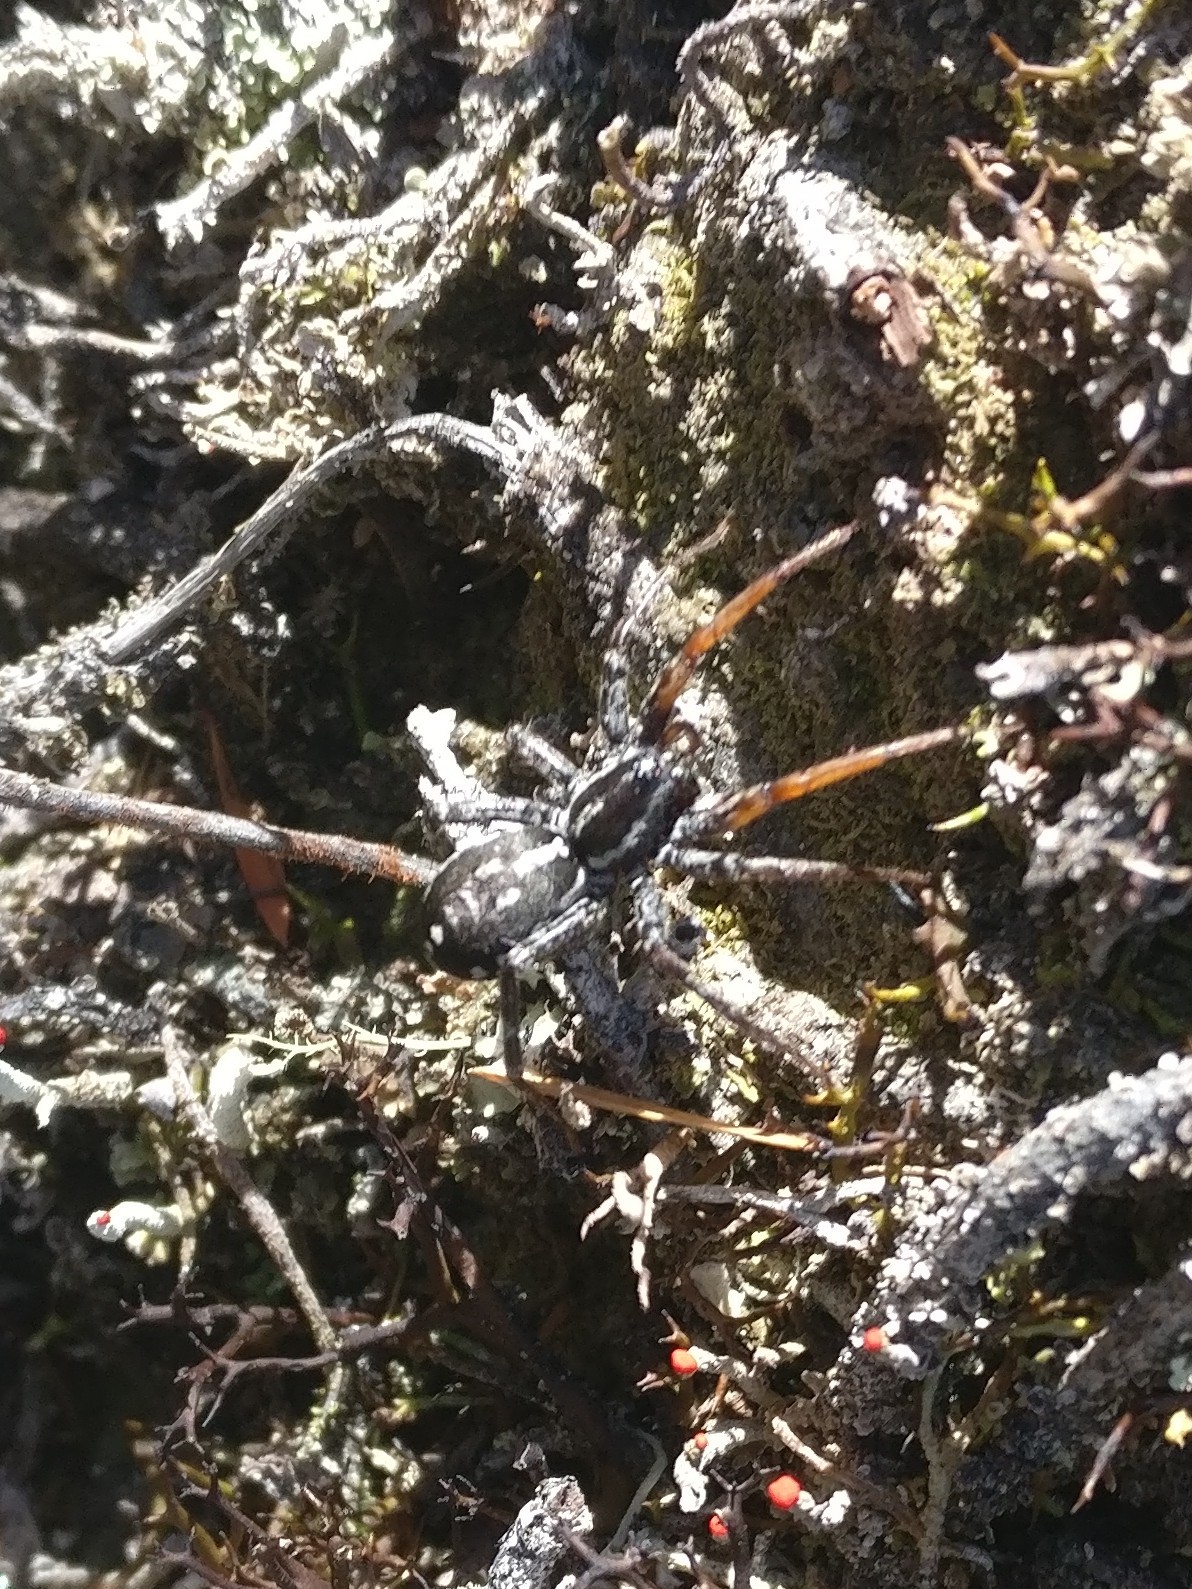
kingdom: Animalia
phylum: Arthropoda
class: Arachnida
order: Araneae
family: Corinnidae
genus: Nyssus
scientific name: Nyssus coloripes
